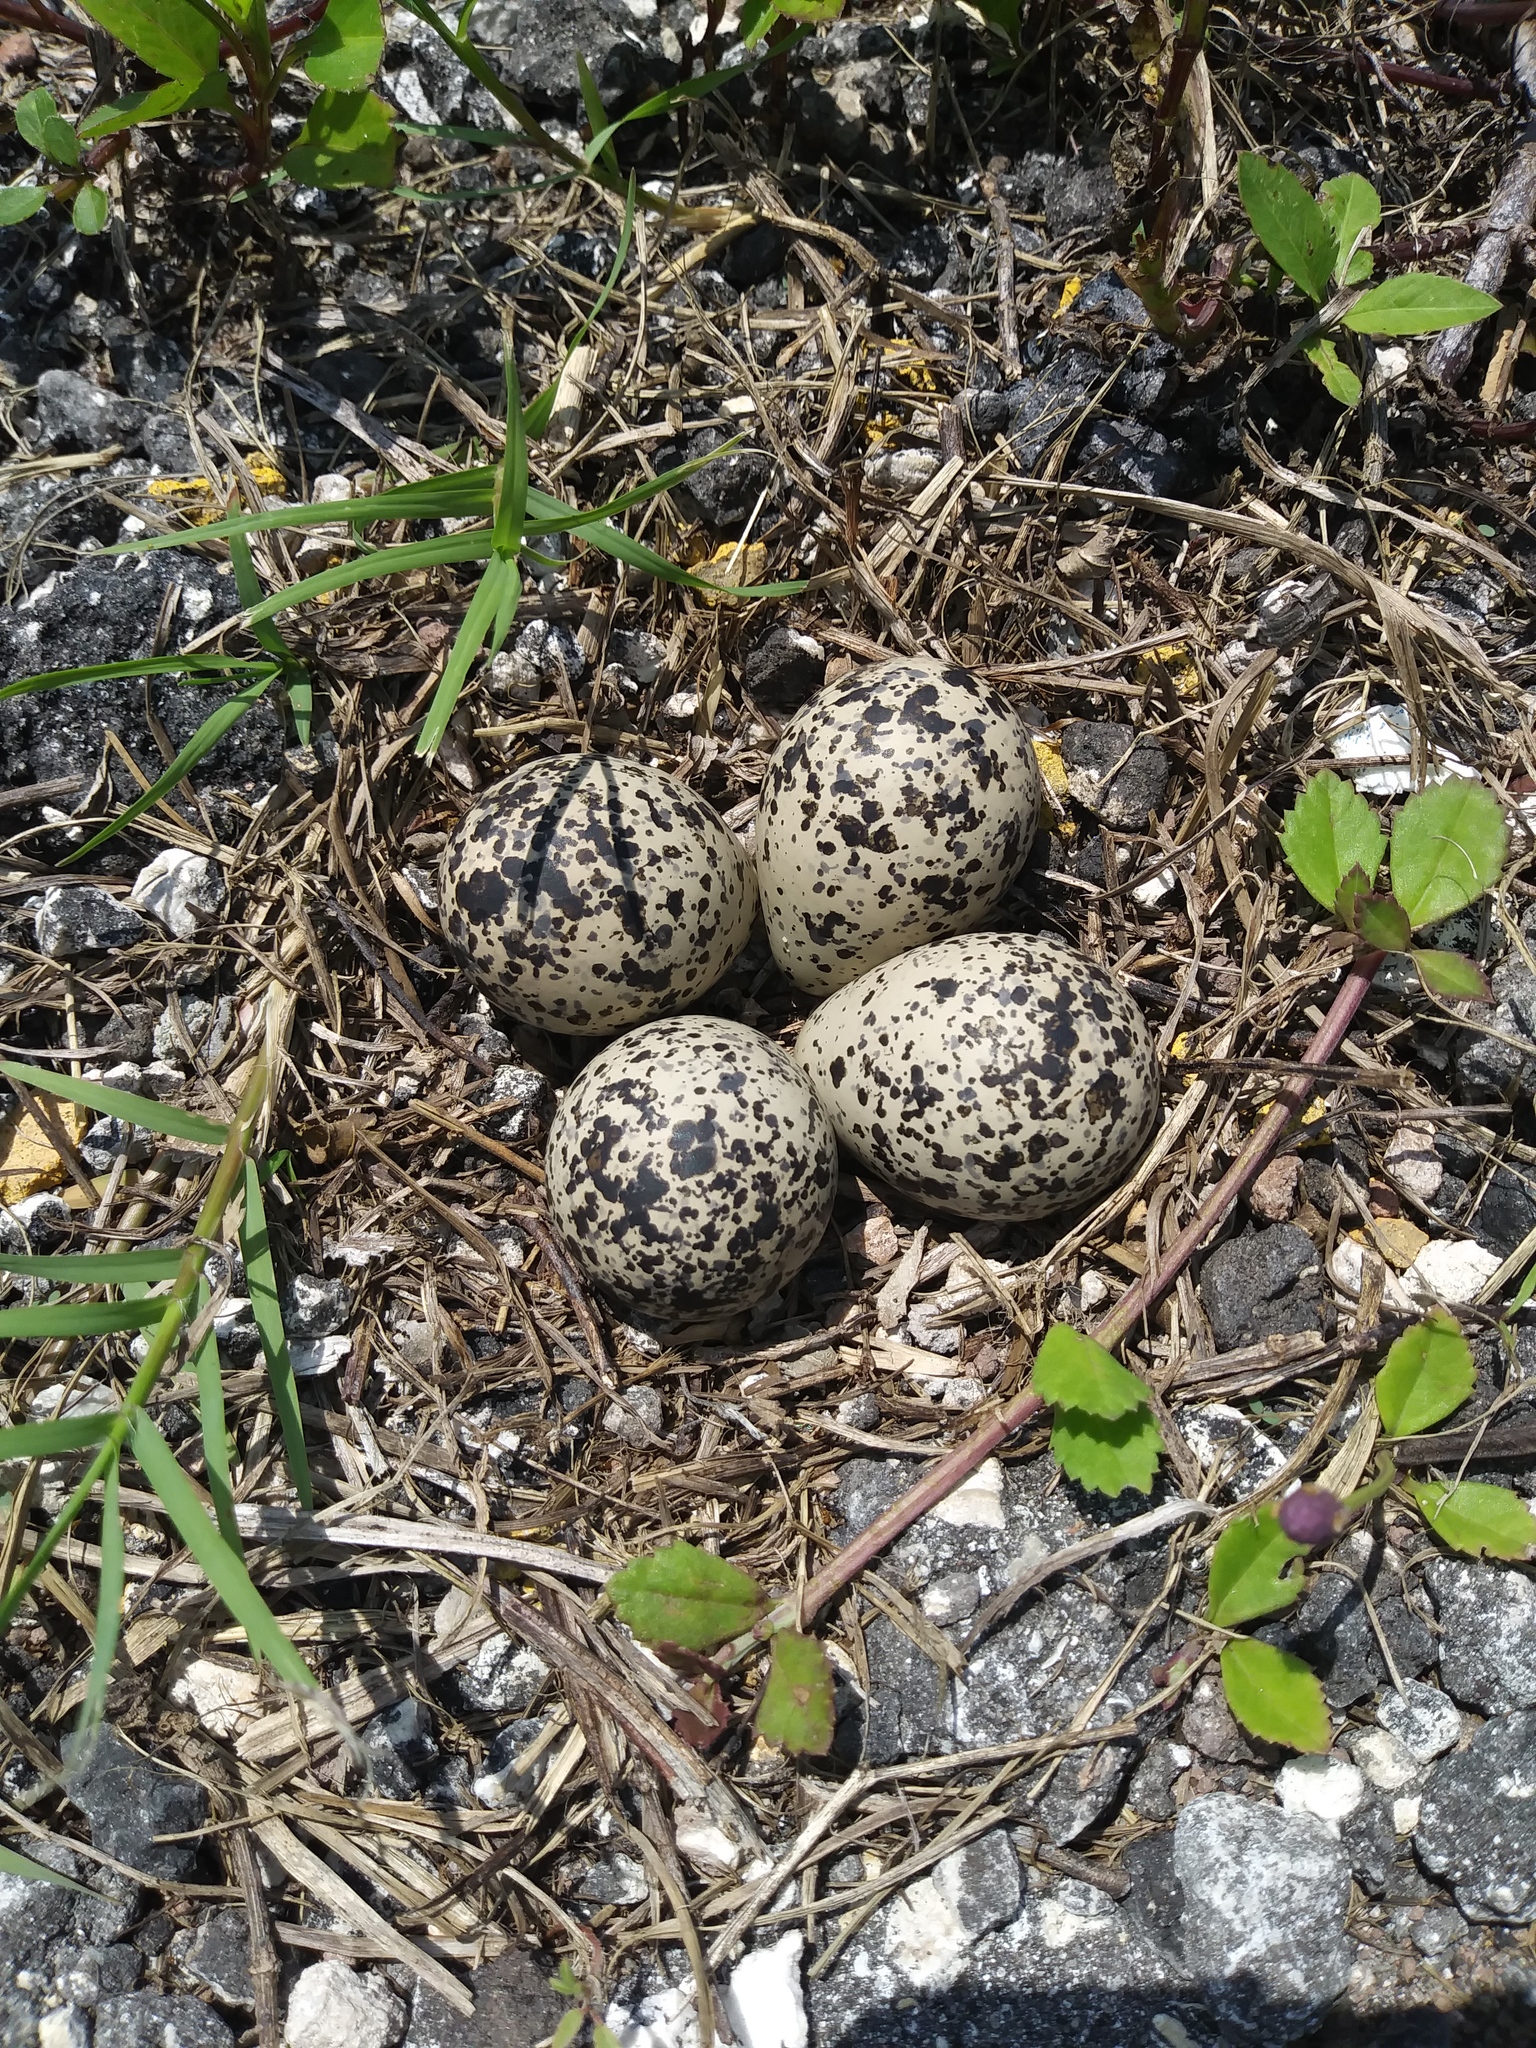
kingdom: Animalia
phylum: Chordata
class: Aves
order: Charadriiformes
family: Charadriidae
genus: Charadrius
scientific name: Charadrius vociferus
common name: Killdeer
